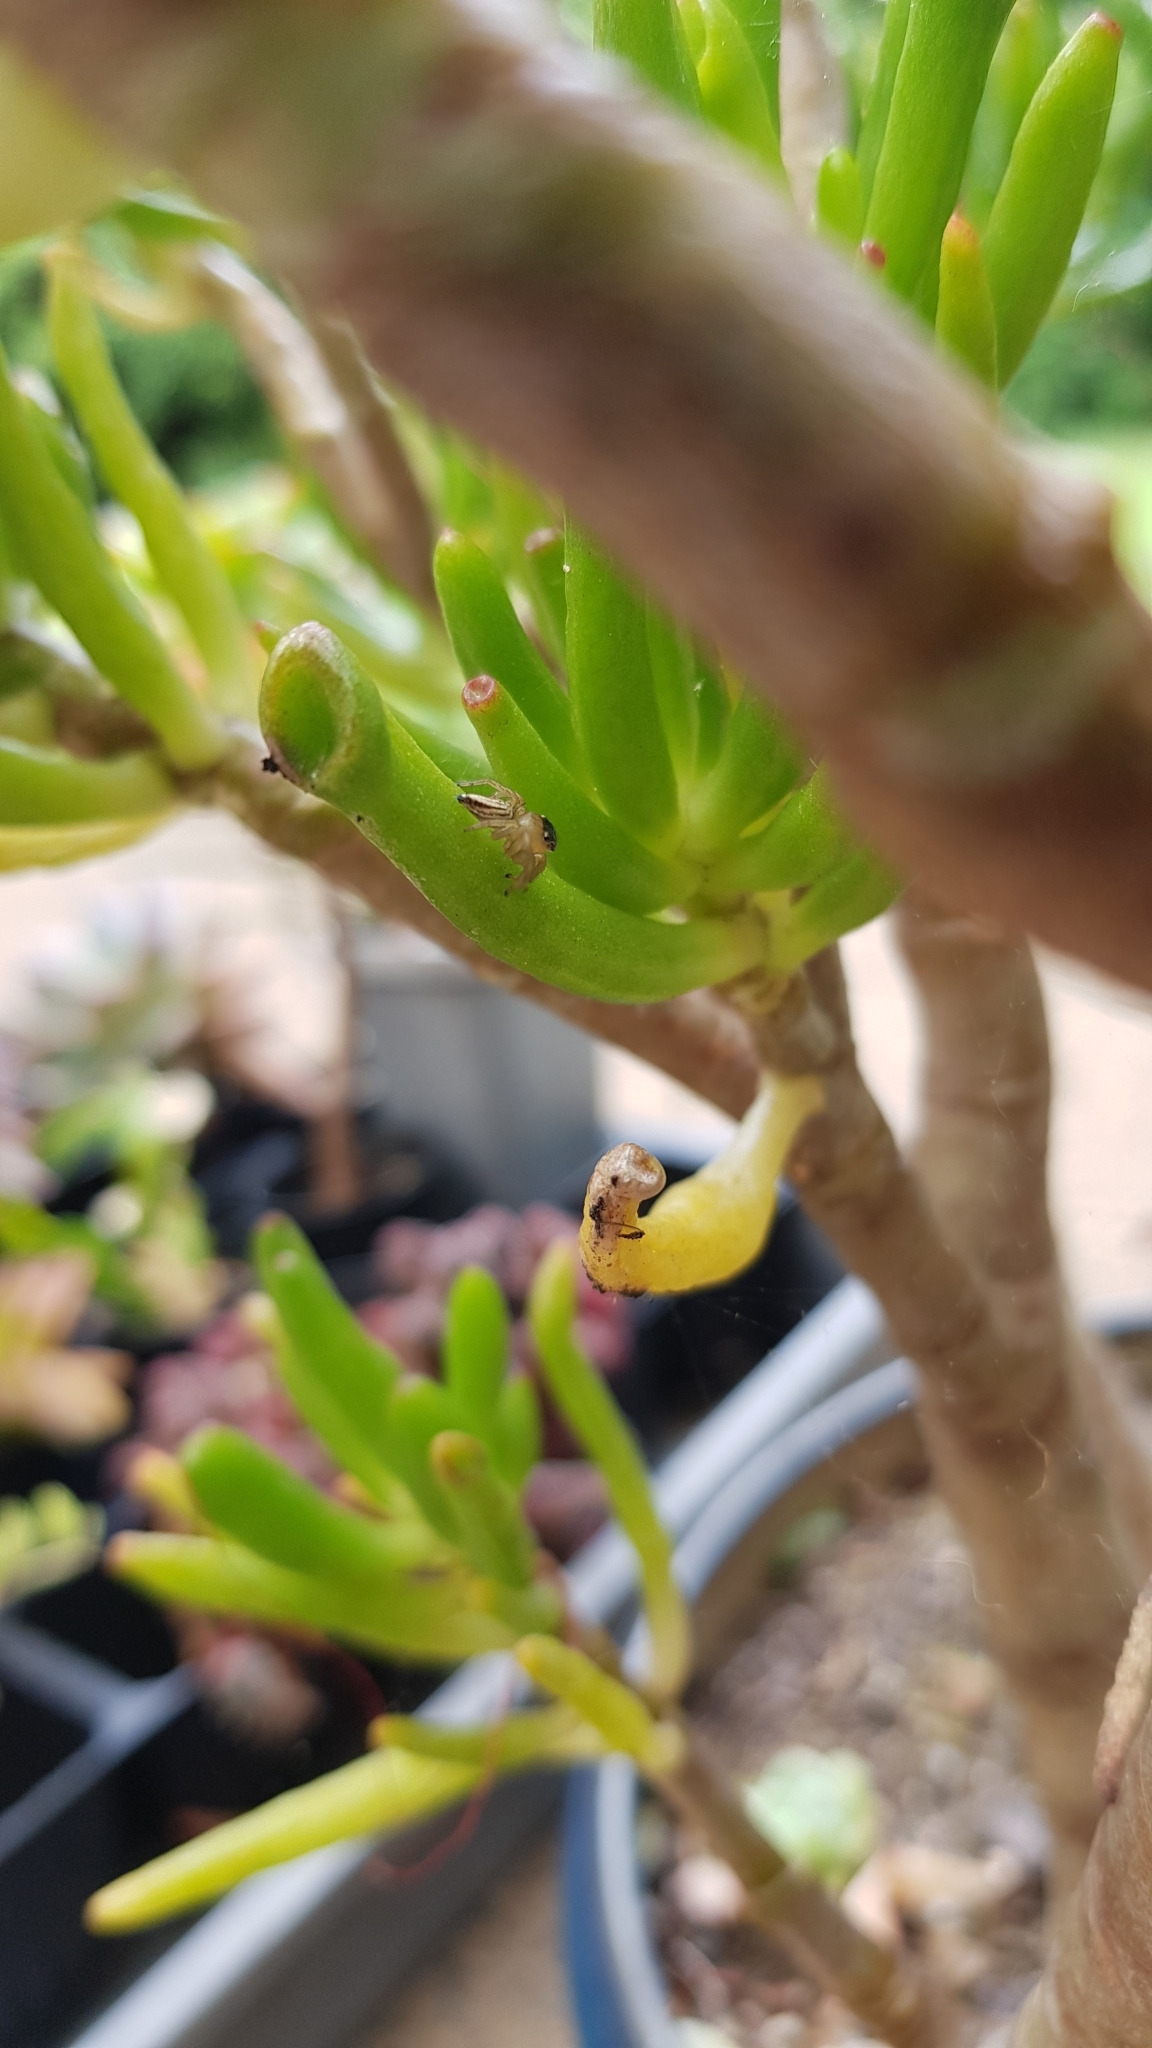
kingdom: Animalia
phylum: Arthropoda
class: Arachnida
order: Araneae
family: Salticidae
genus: Maratus
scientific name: Maratus scutulatus
